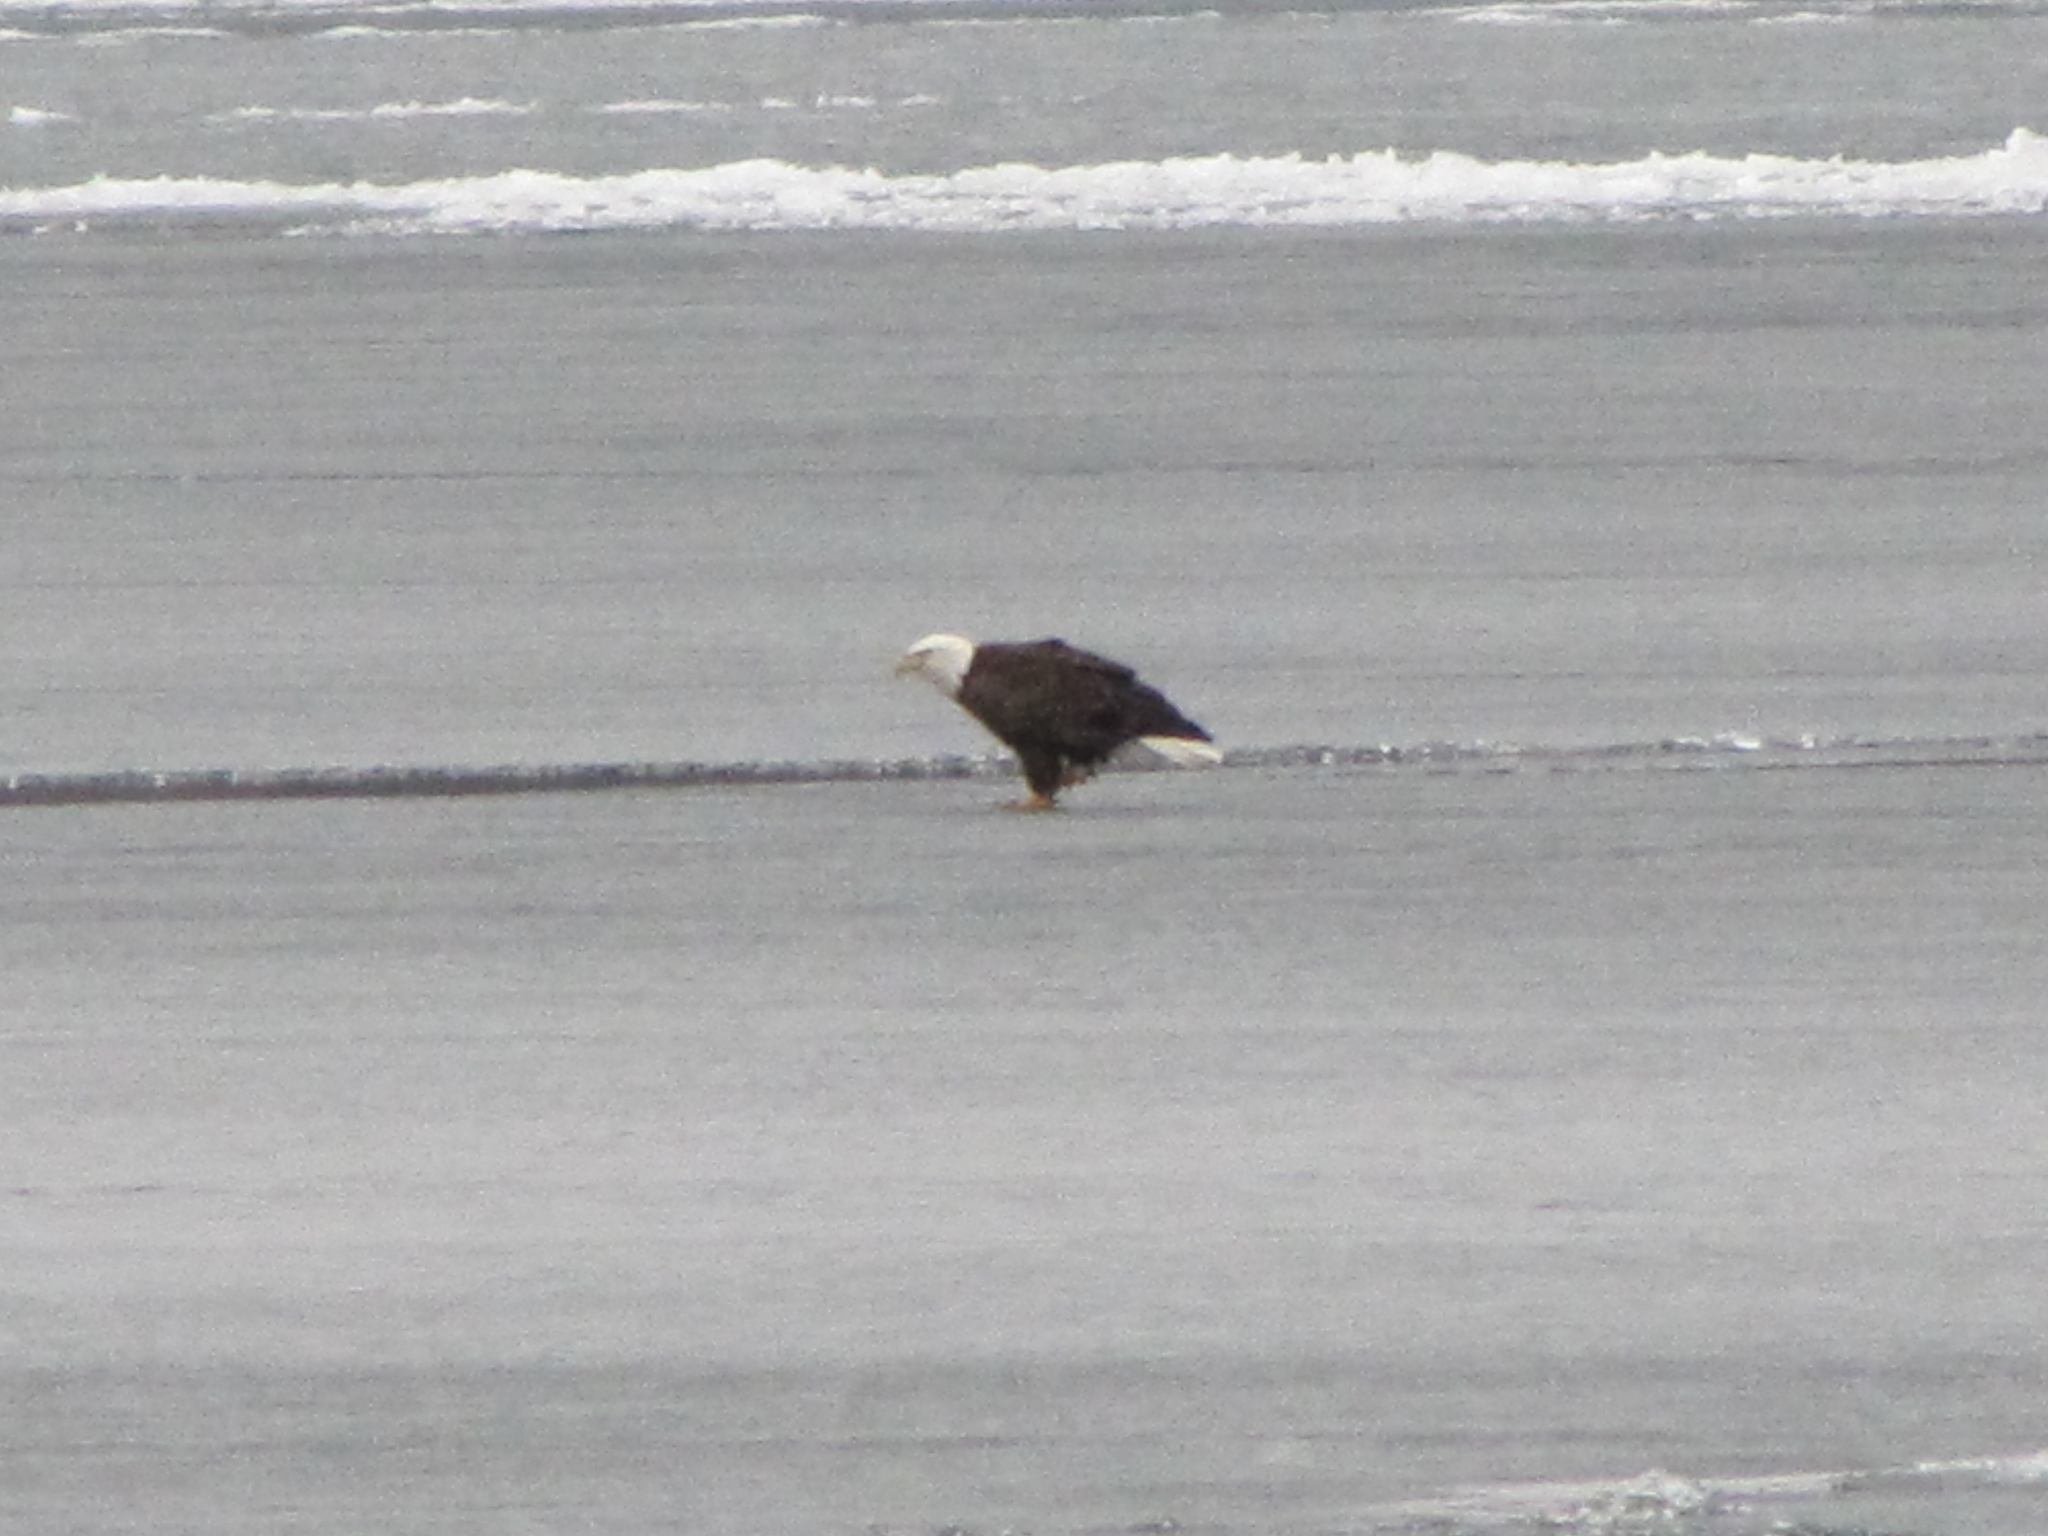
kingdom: Animalia
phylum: Chordata
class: Aves
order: Accipitriformes
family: Accipitridae
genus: Haliaeetus
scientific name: Haliaeetus leucocephalus
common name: Bald eagle
